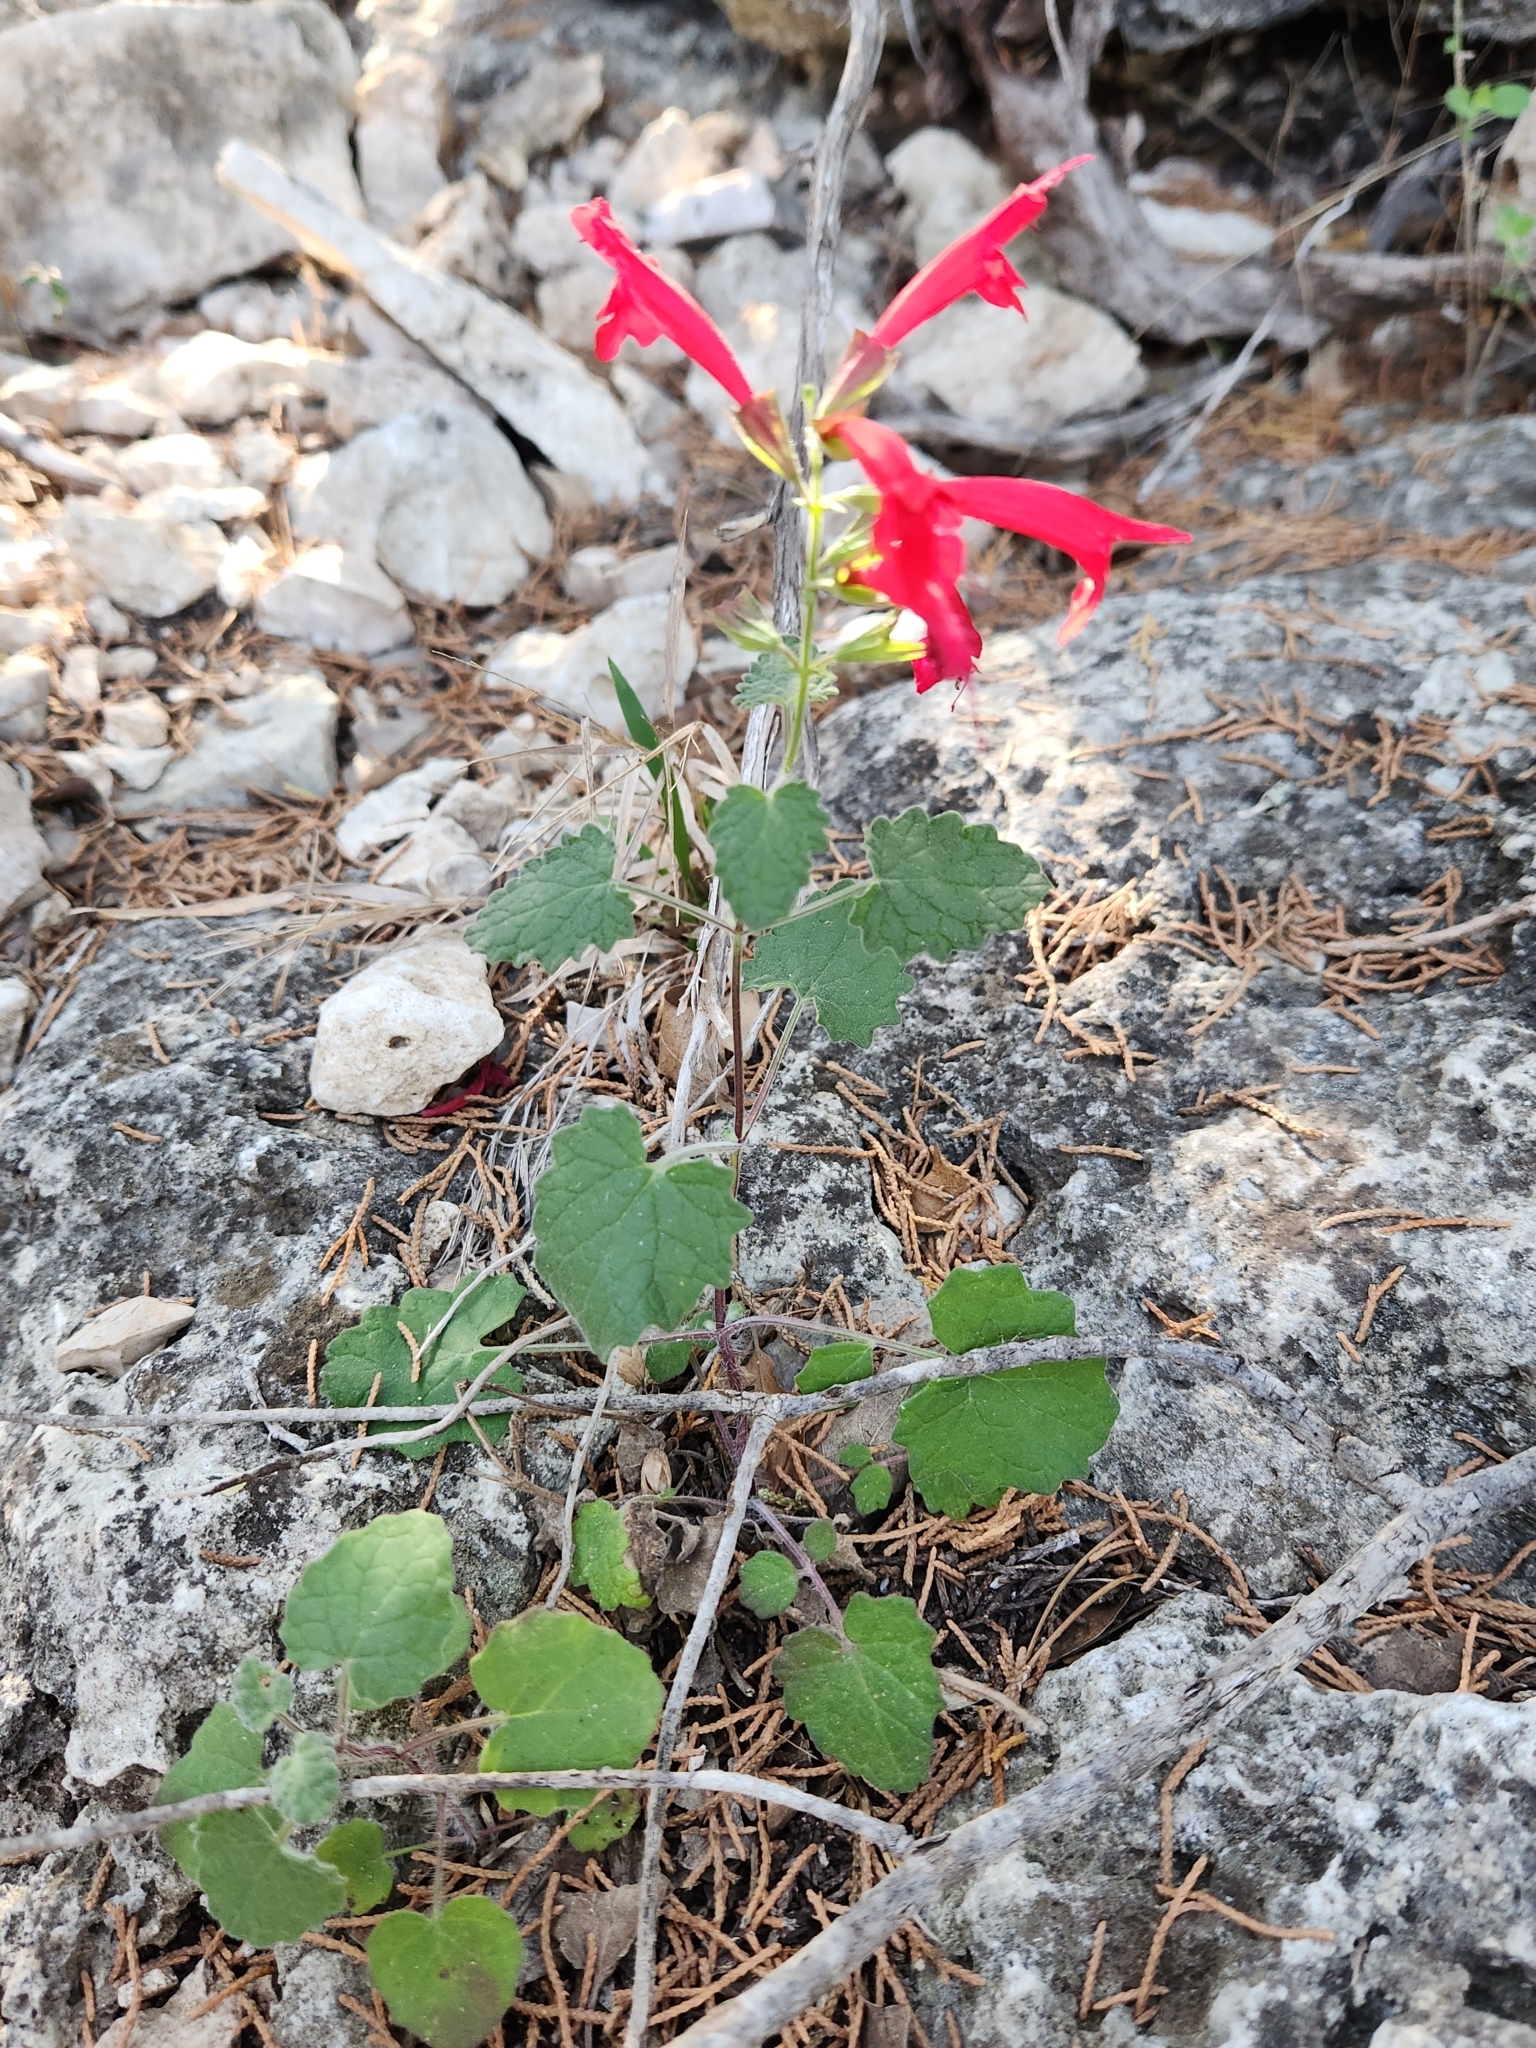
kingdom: Plantae
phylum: Tracheophyta
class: Magnoliopsida
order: Lamiales
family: Lamiaceae
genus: Salvia
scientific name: Salvia roemeriana
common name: Cedar sage
